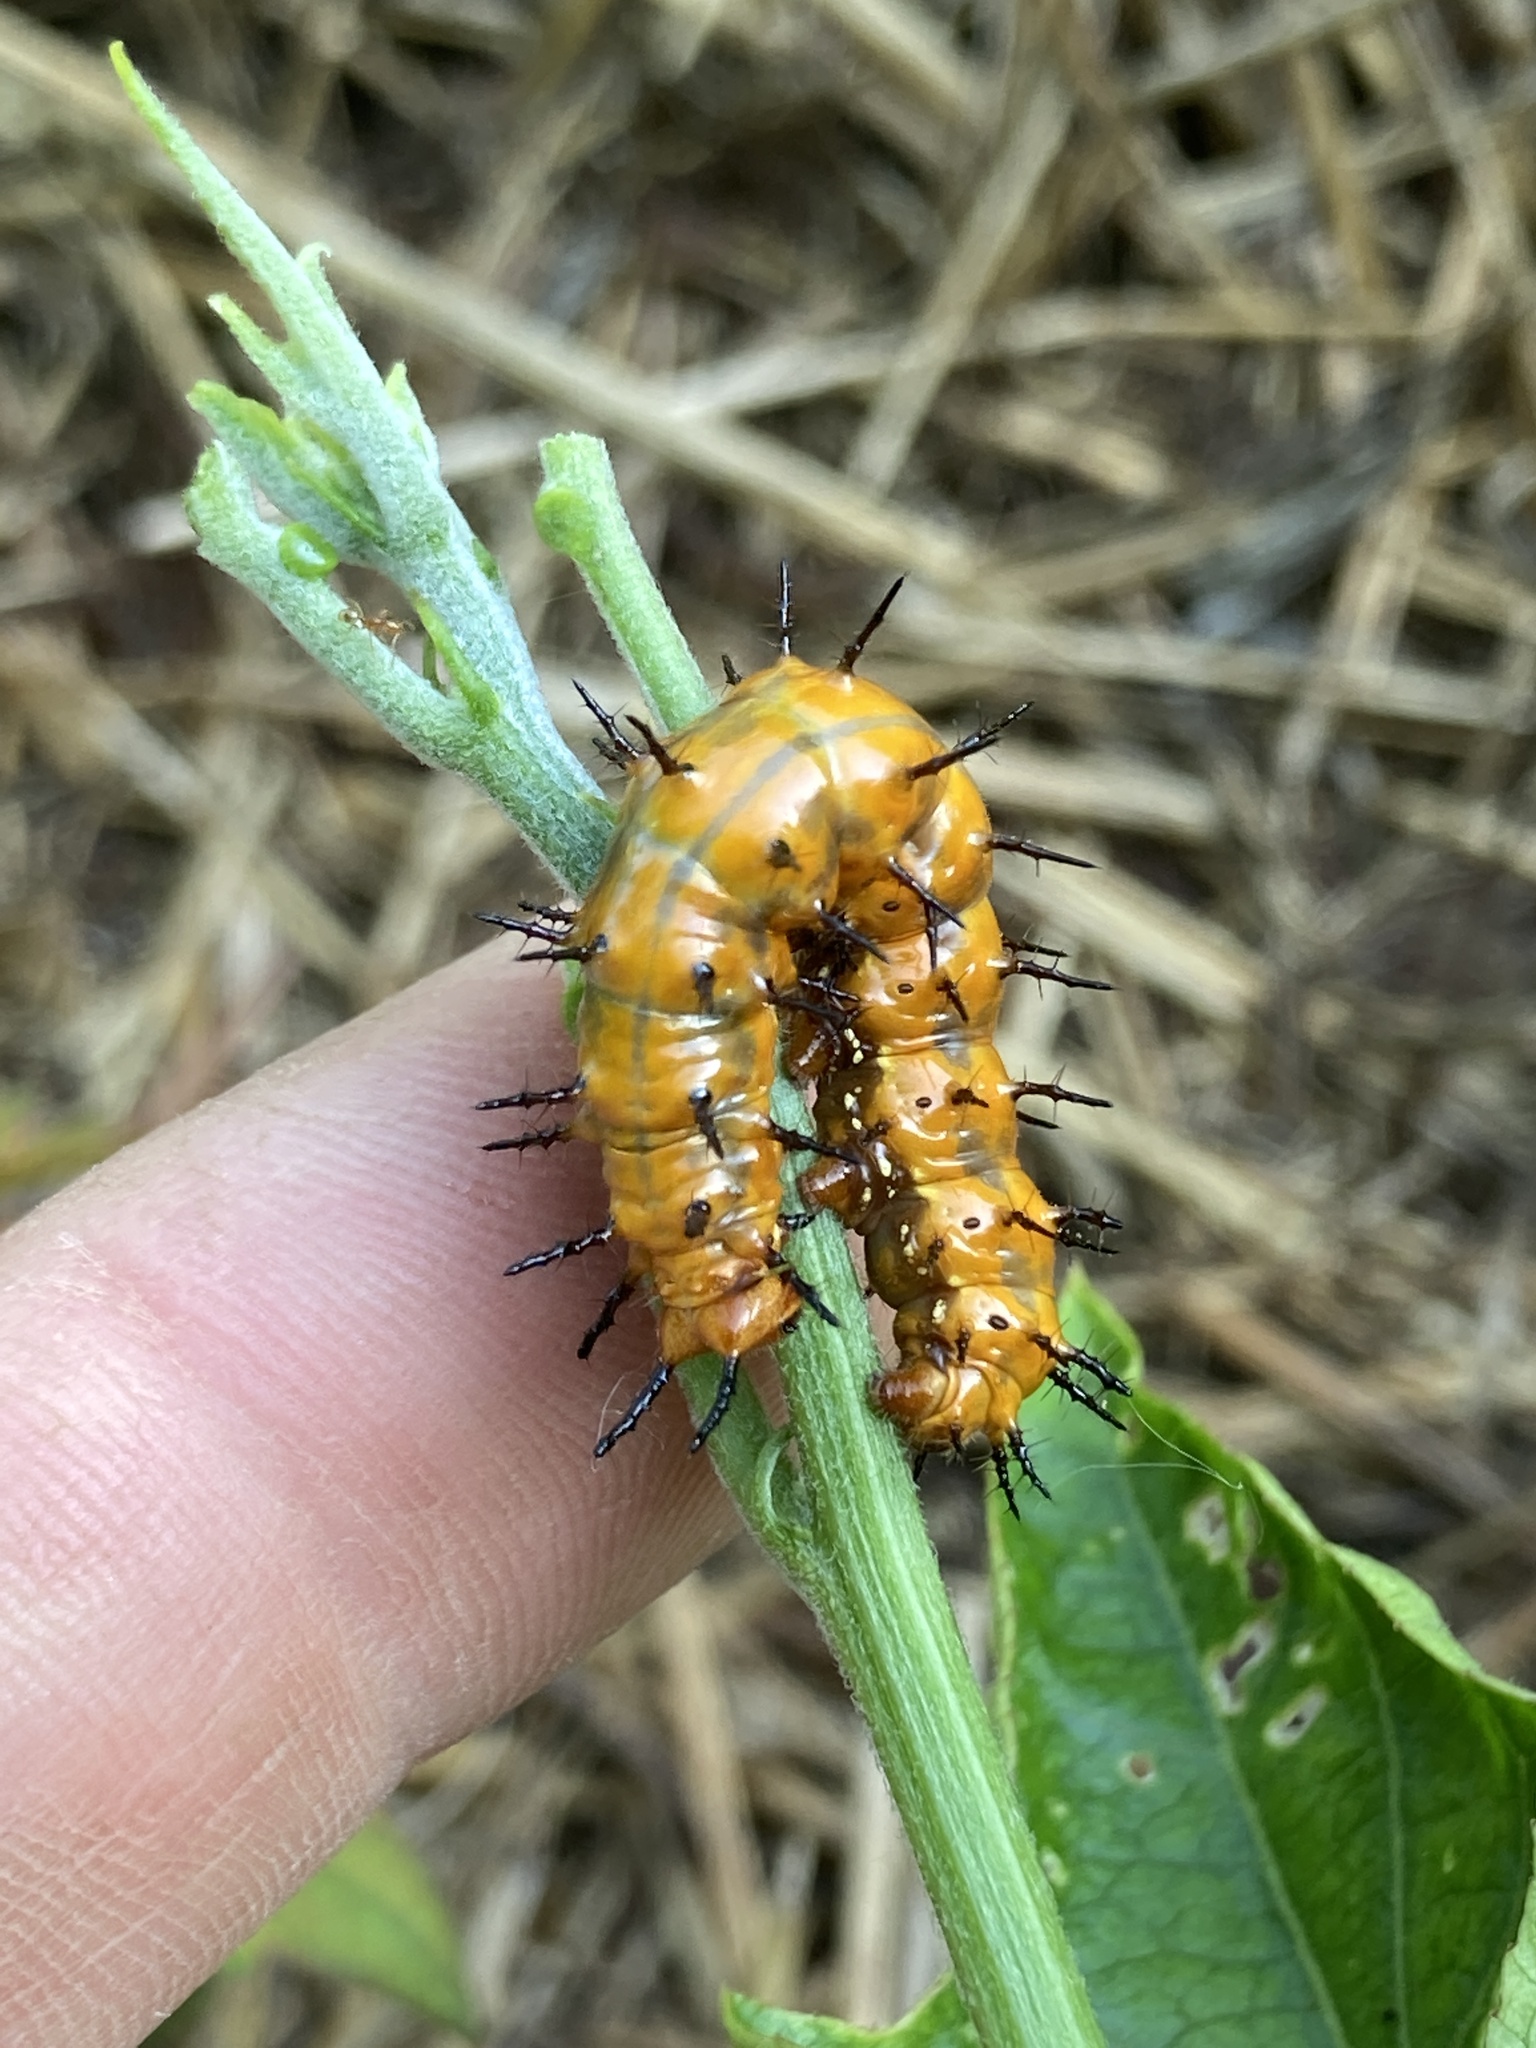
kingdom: Animalia
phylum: Arthropoda
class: Insecta
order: Lepidoptera
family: Nymphalidae
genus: Dione
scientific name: Dione vanillae
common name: Gulf fritillary
